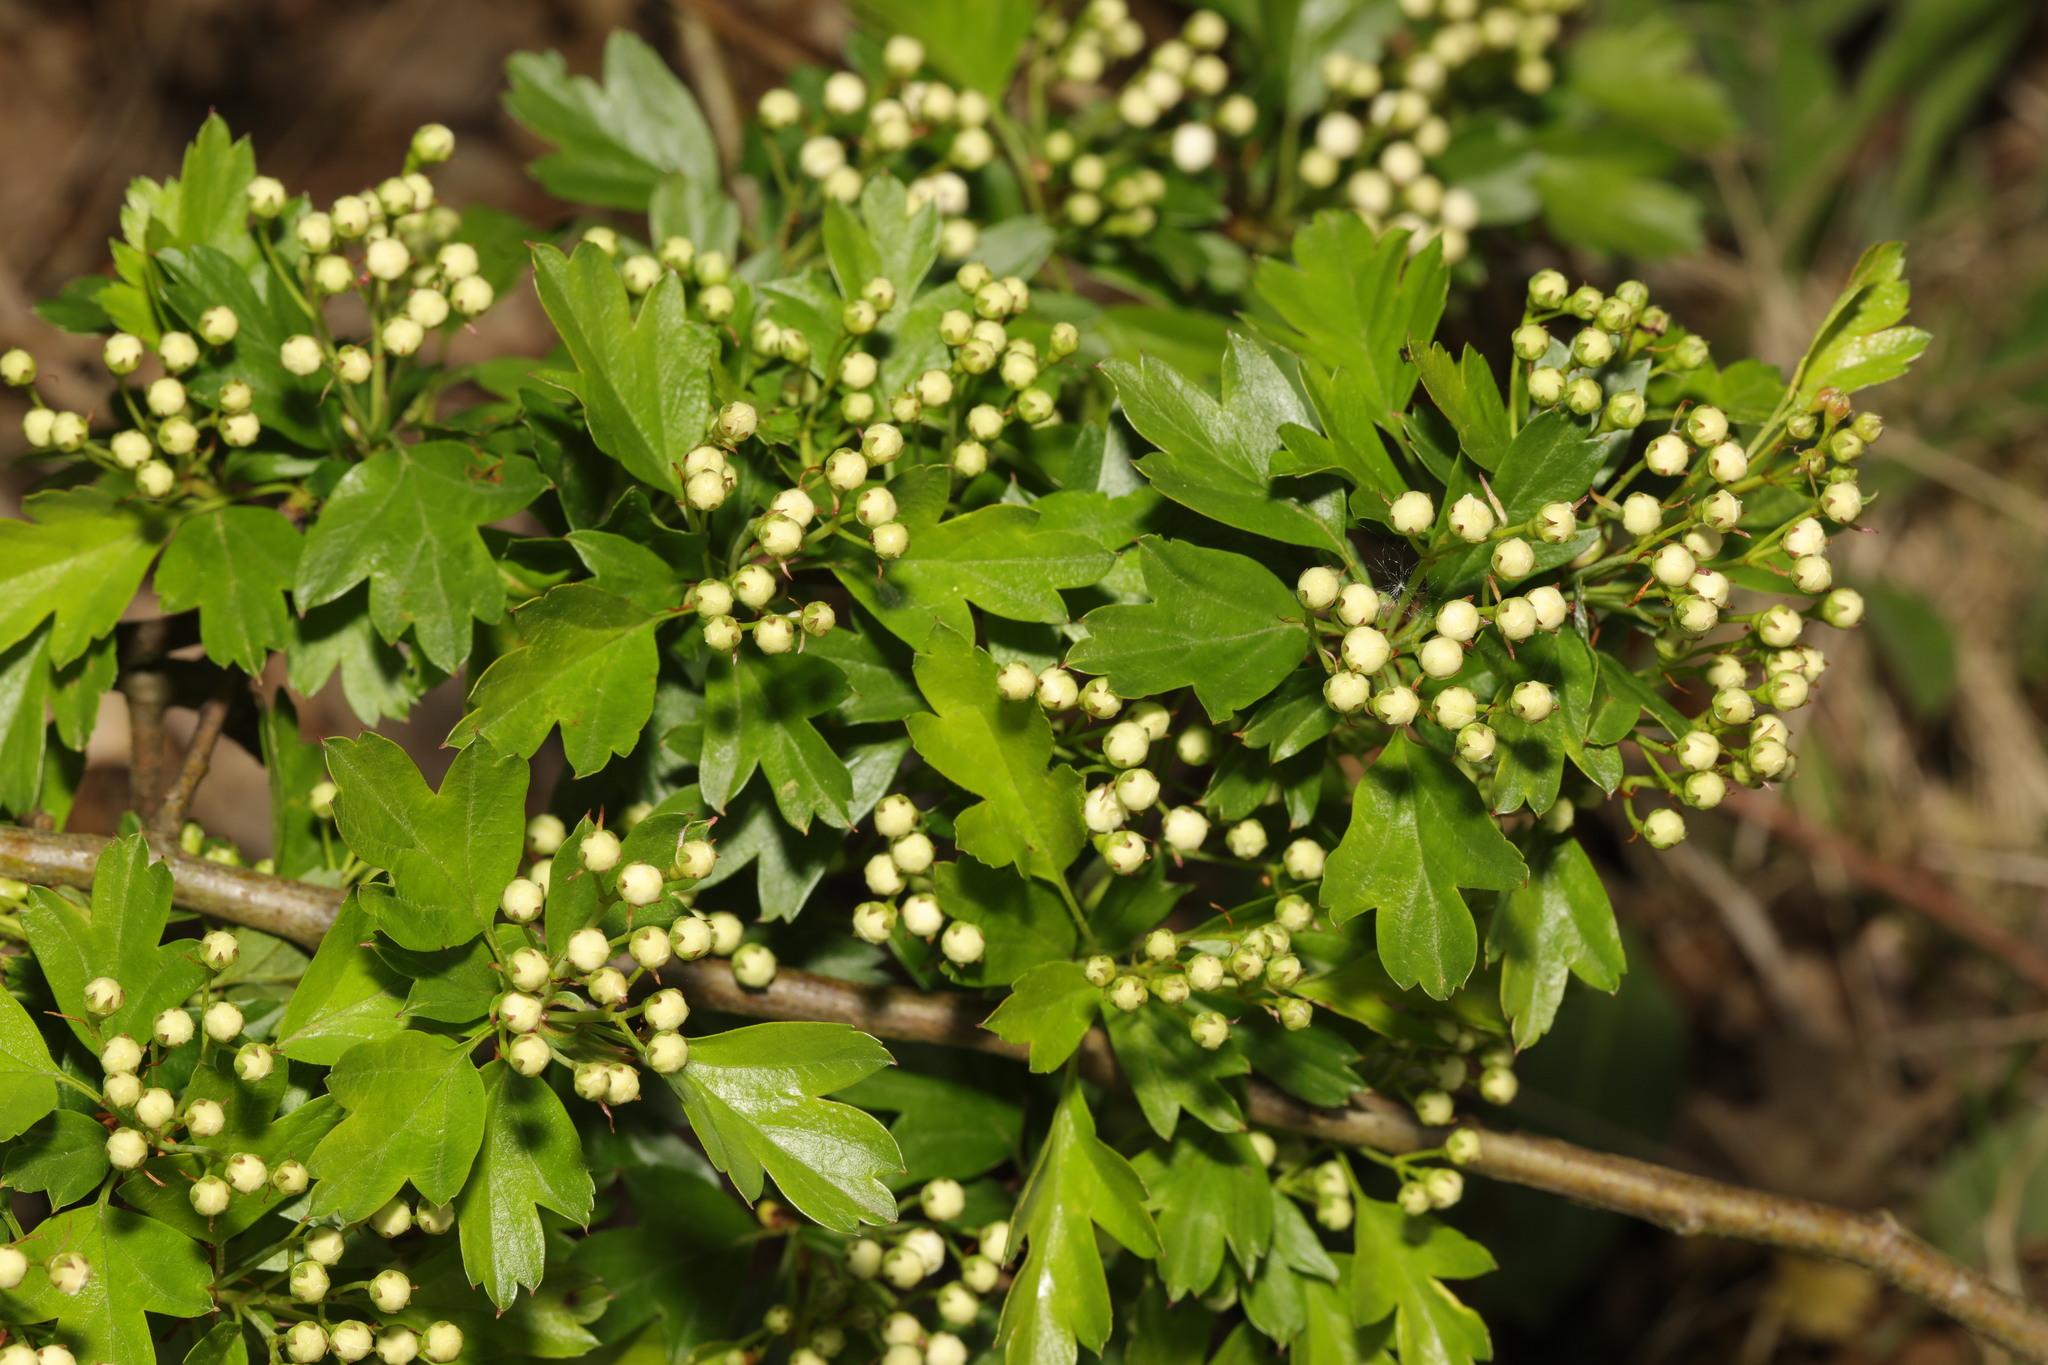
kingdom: Plantae
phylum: Tracheophyta
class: Magnoliopsida
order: Rosales
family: Rosaceae
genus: Crataegus
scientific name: Crataegus monogyna
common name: Hawthorn
